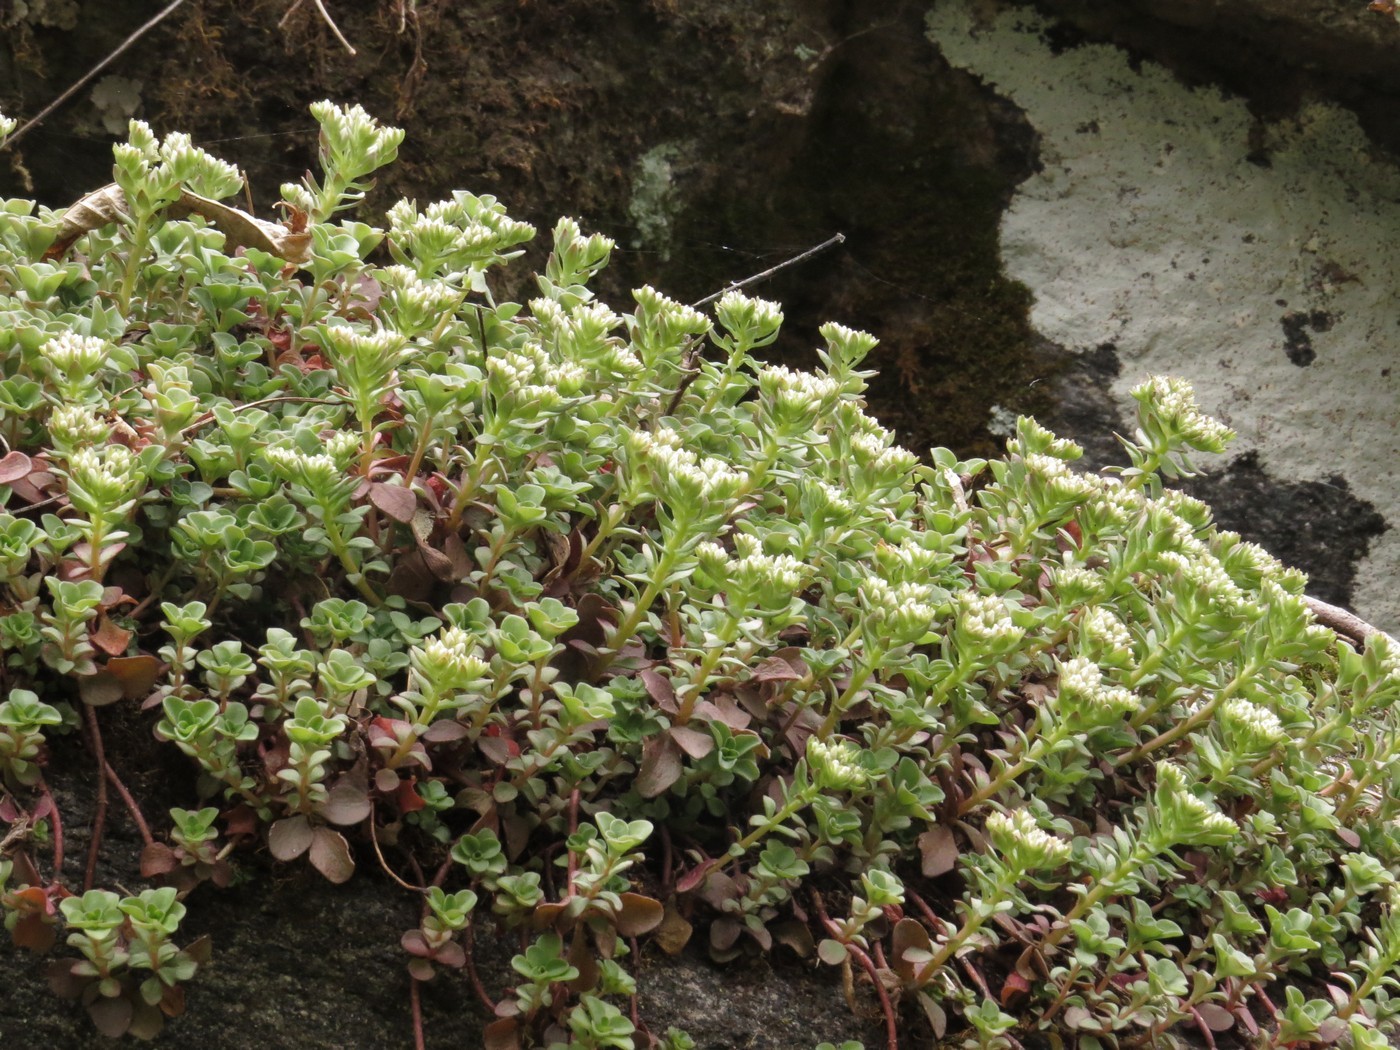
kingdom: Plantae
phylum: Tracheophyta
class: Magnoliopsida
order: Saxifragales
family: Crassulaceae
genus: Sedum
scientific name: Sedum ternatum
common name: Wild stonecrop
